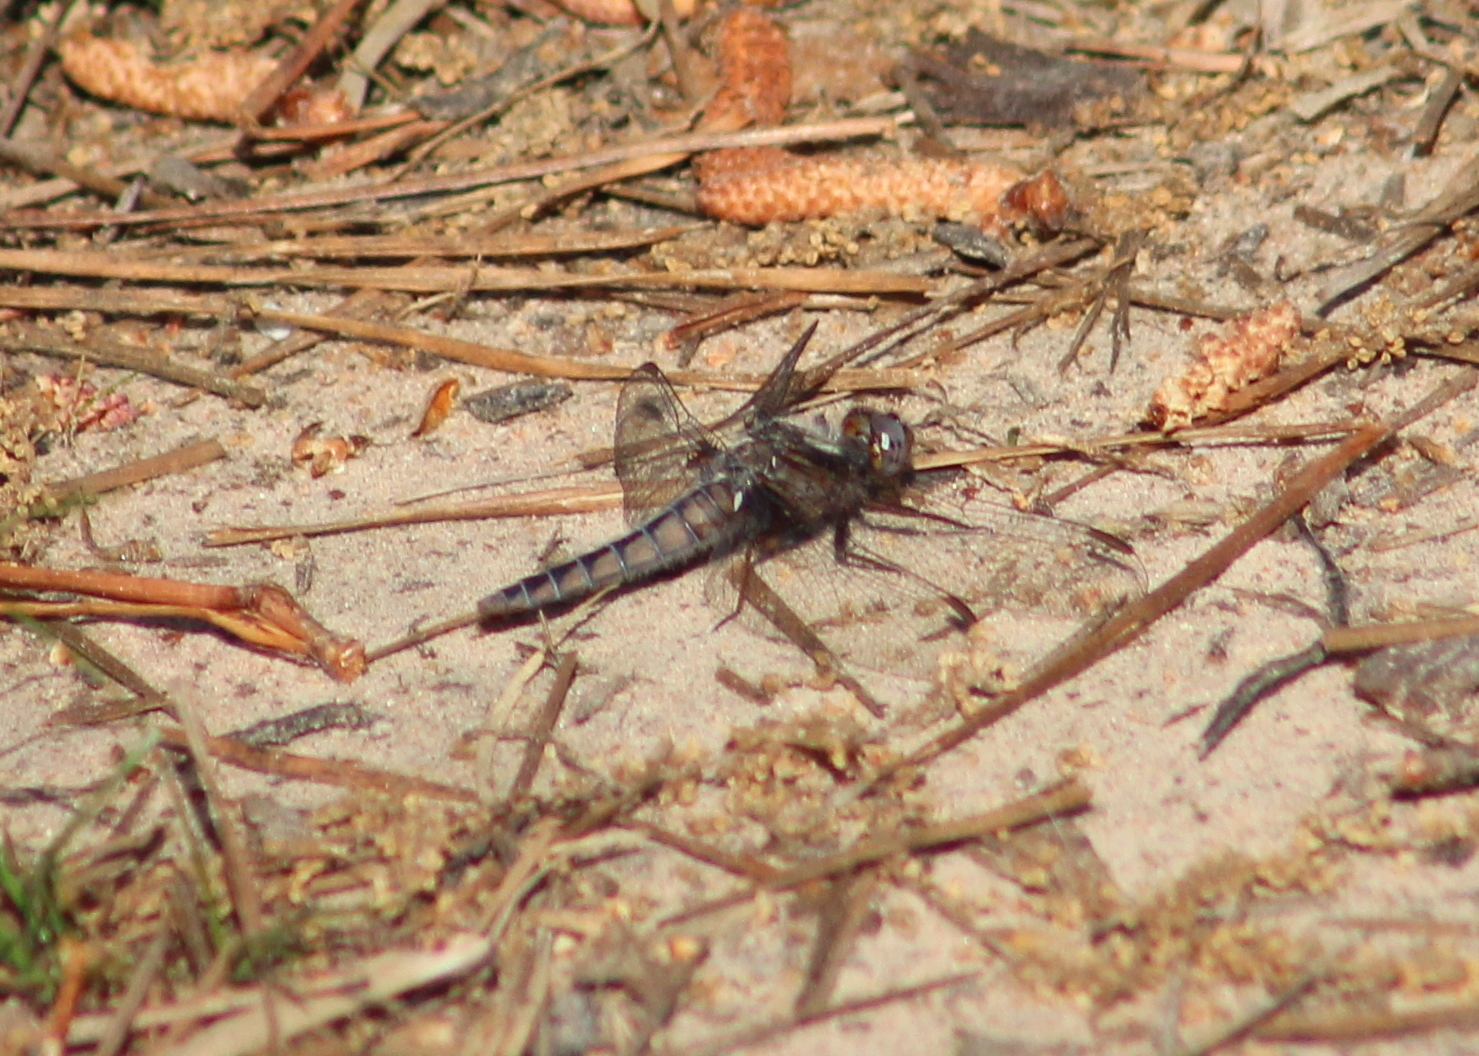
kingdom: Animalia
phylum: Arthropoda
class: Insecta
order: Odonata
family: Libellulidae
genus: Ladona
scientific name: Ladona deplanata
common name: Blue corporal
